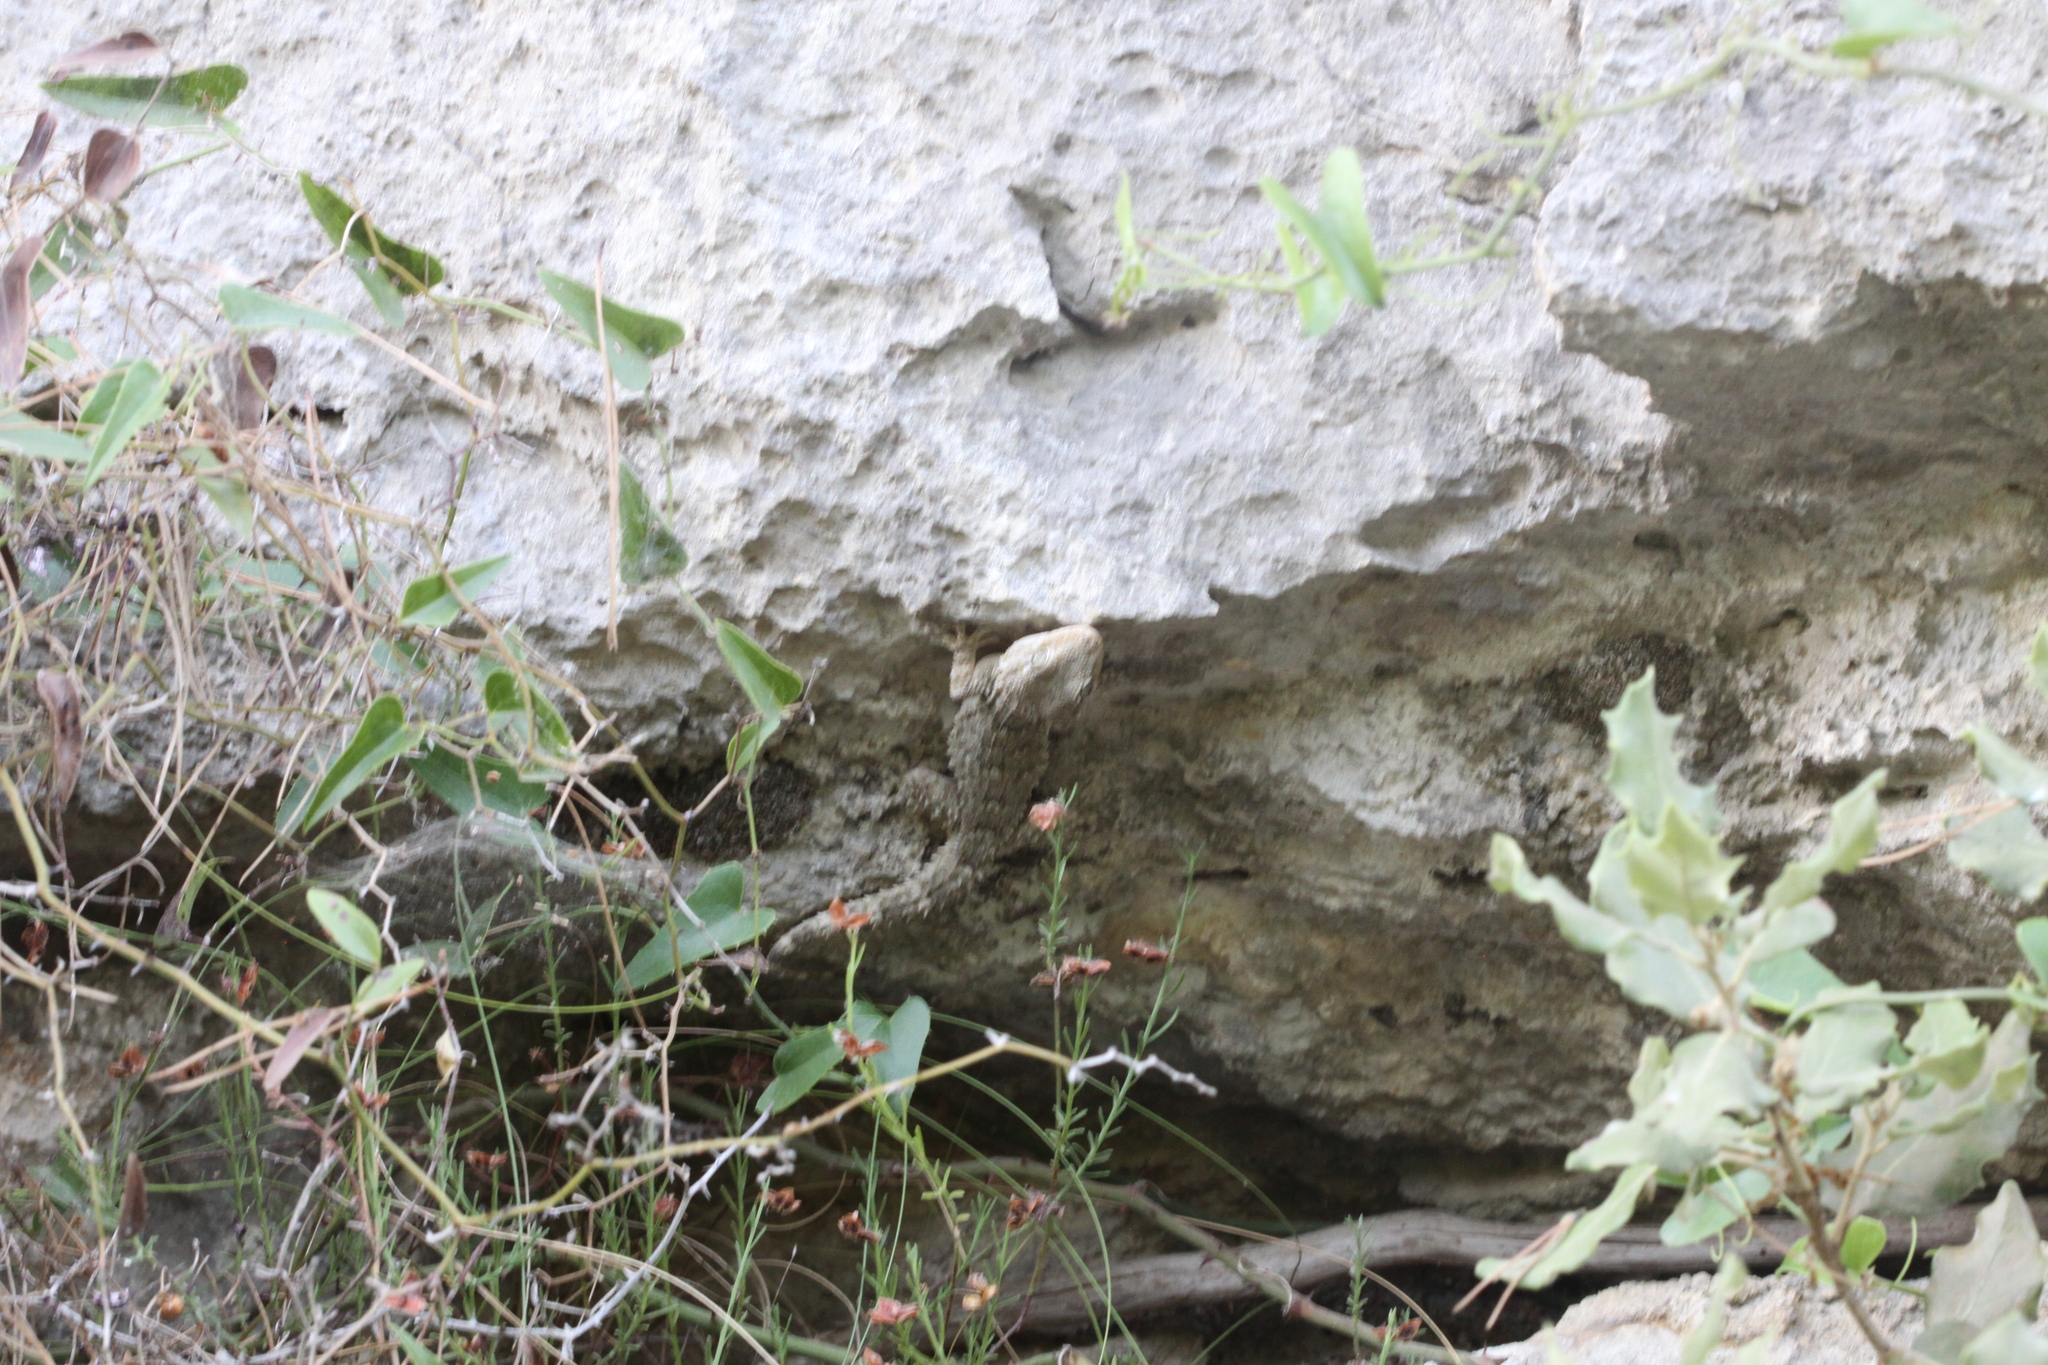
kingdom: Animalia
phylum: Chordata
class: Squamata
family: Phyllodactylidae
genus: Tarentola
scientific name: Tarentola mauritanica
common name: Moorish gecko
